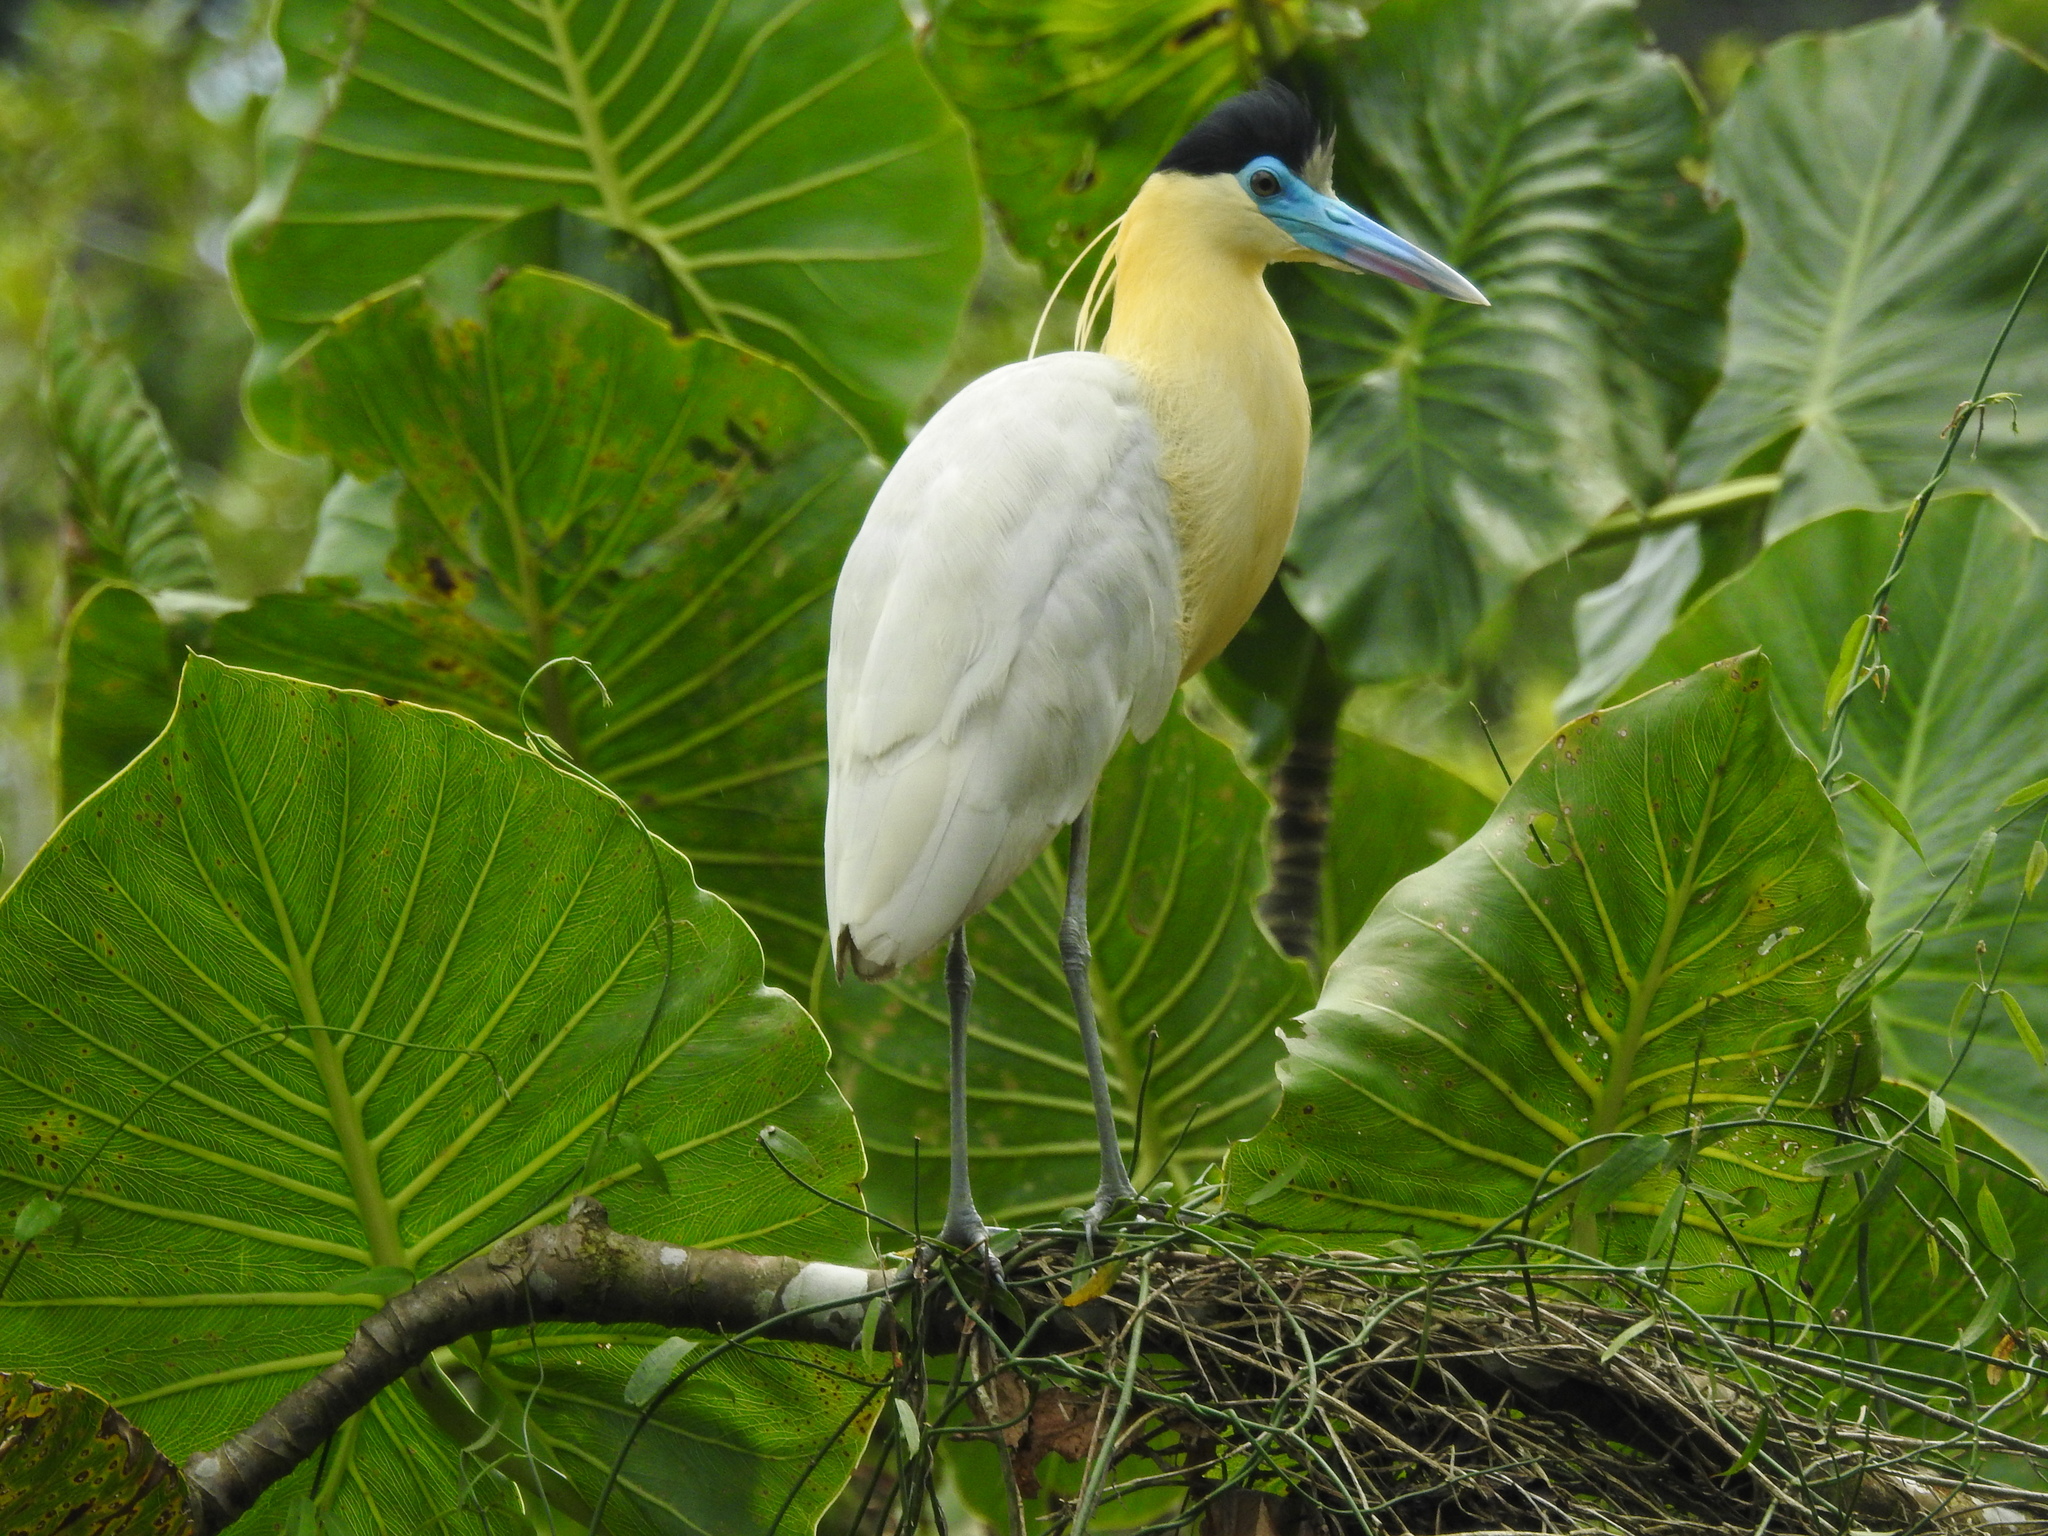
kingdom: Animalia
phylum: Chordata
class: Aves
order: Pelecaniformes
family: Ardeidae
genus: Pilherodius
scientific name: Pilherodius pileatus
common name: Capped heron
